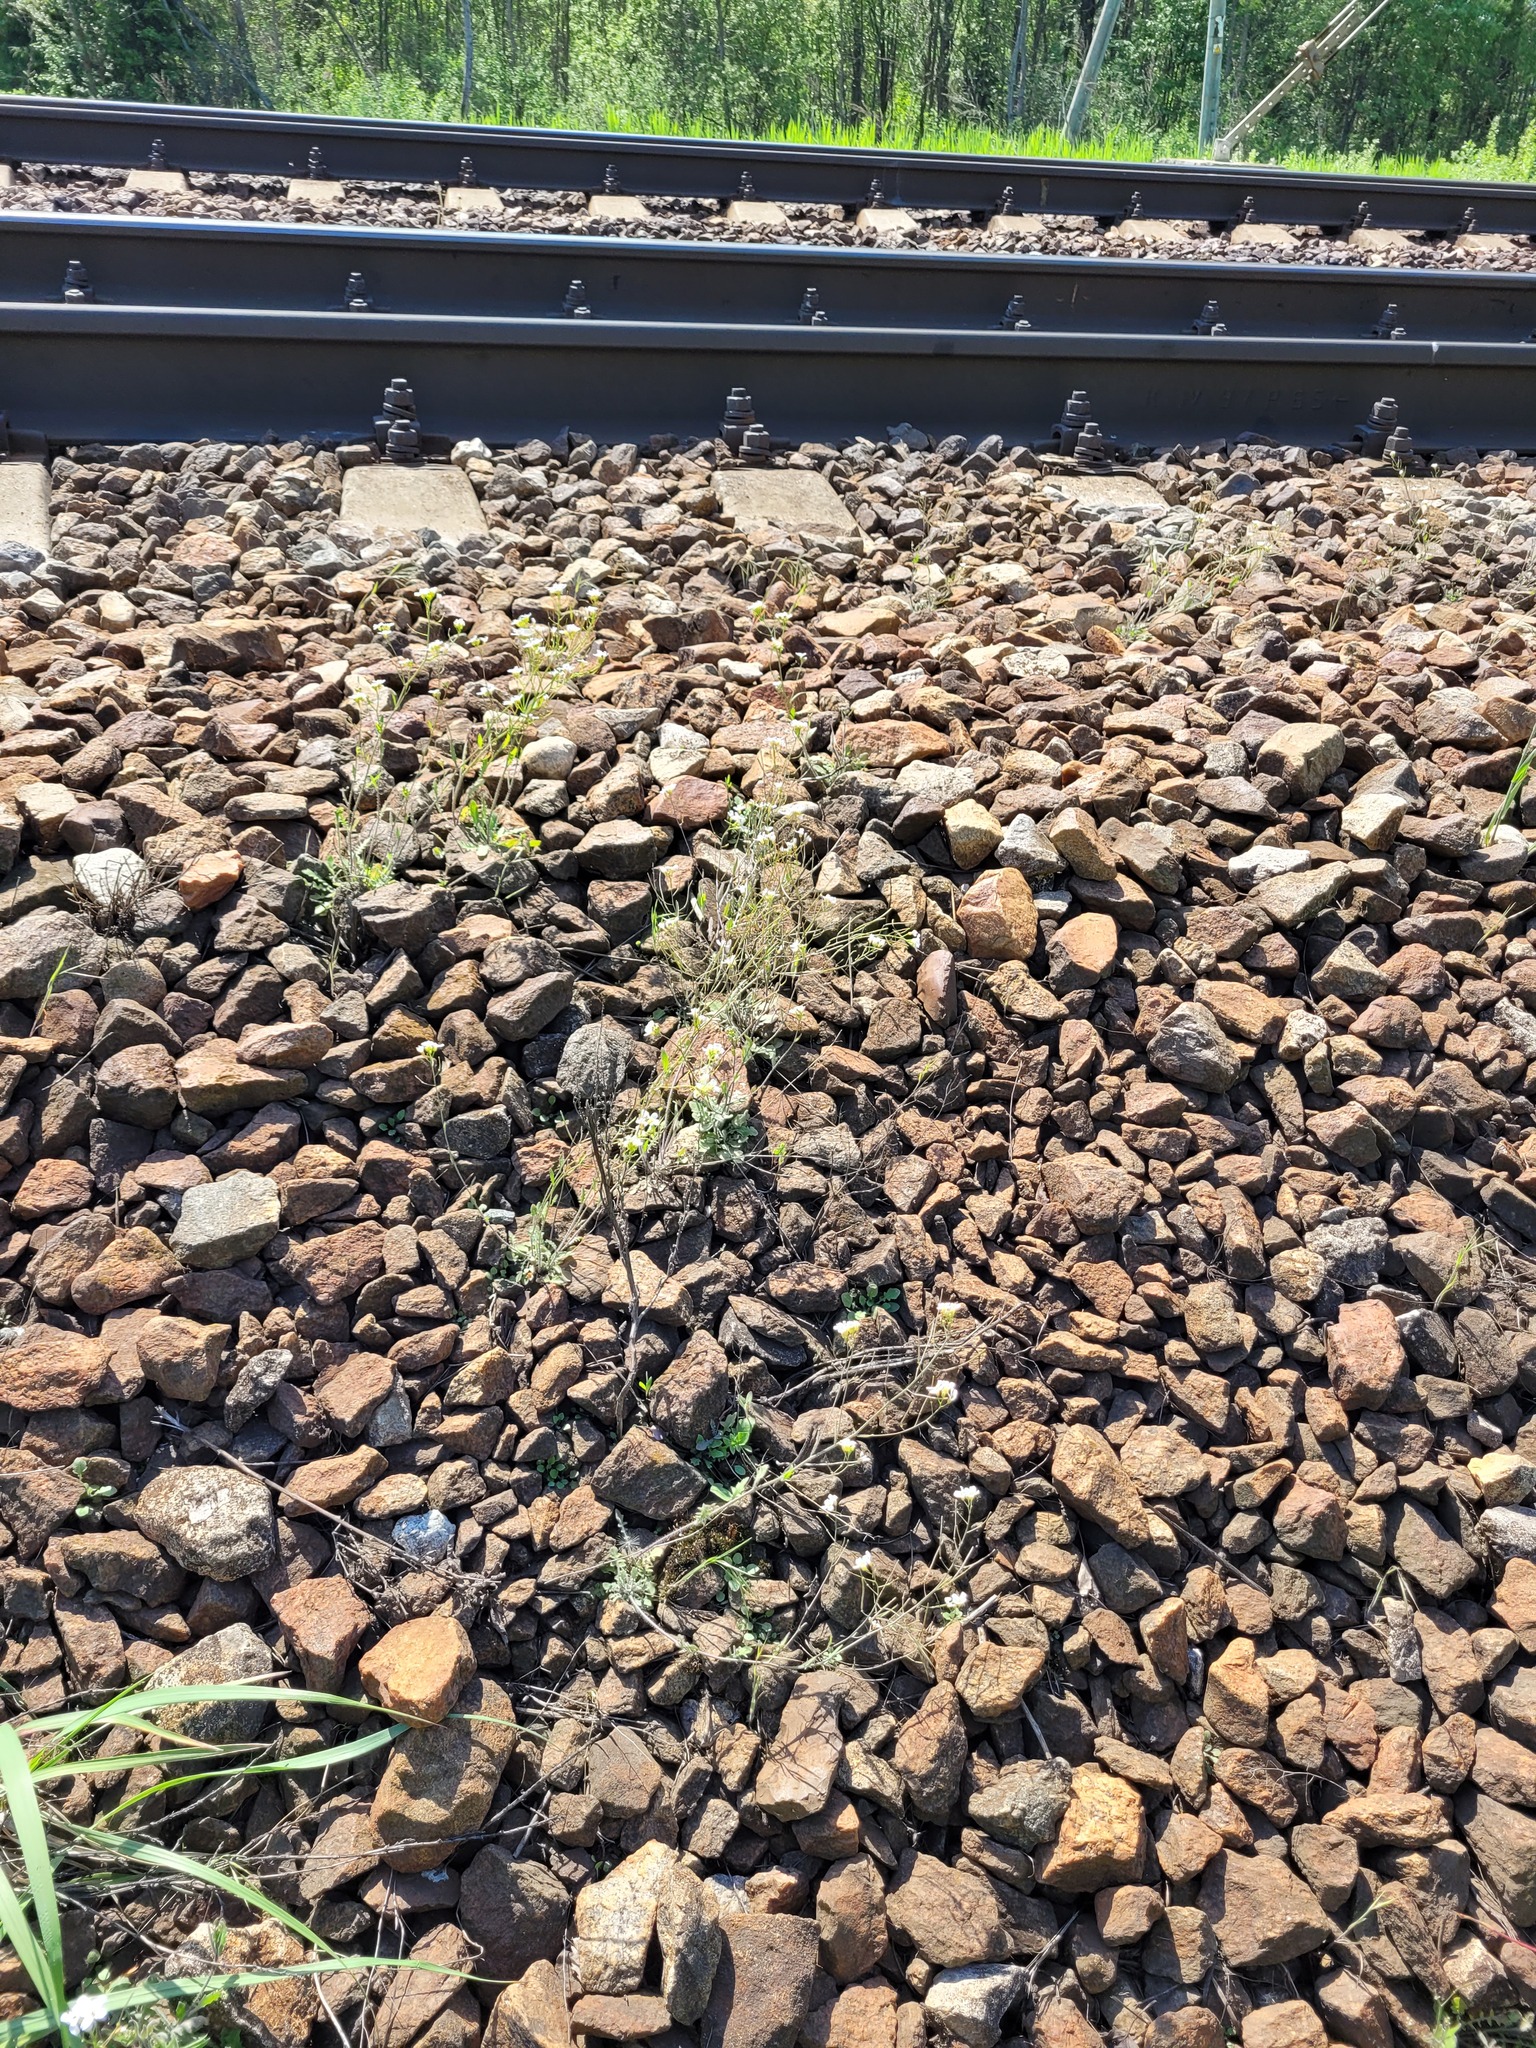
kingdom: Plantae
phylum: Tracheophyta
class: Magnoliopsida
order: Brassicales
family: Brassicaceae
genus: Arabidopsis
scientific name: Arabidopsis arenosa
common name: Sand rock-cress
